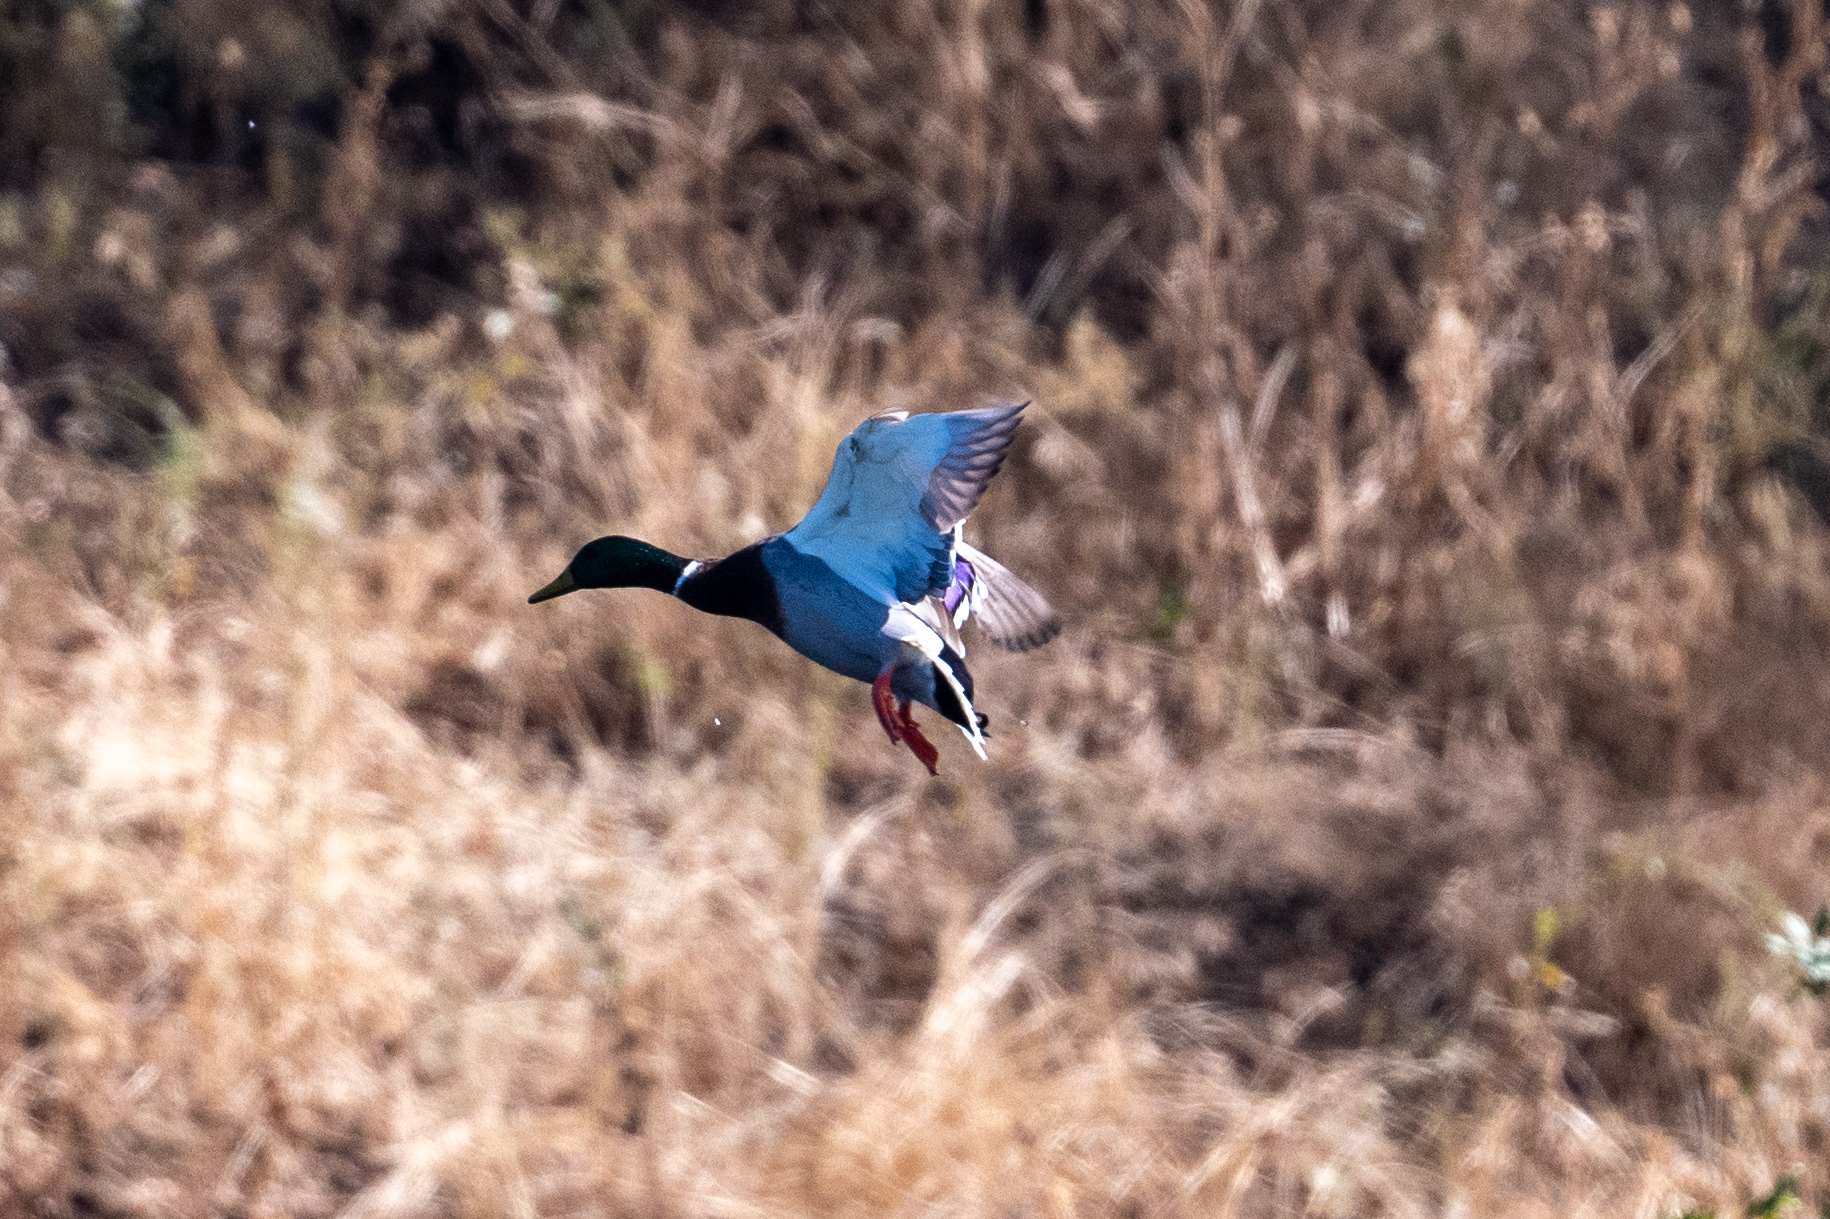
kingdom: Animalia
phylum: Chordata
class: Aves
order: Anseriformes
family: Anatidae
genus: Anas
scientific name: Anas platyrhynchos
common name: Mallard
